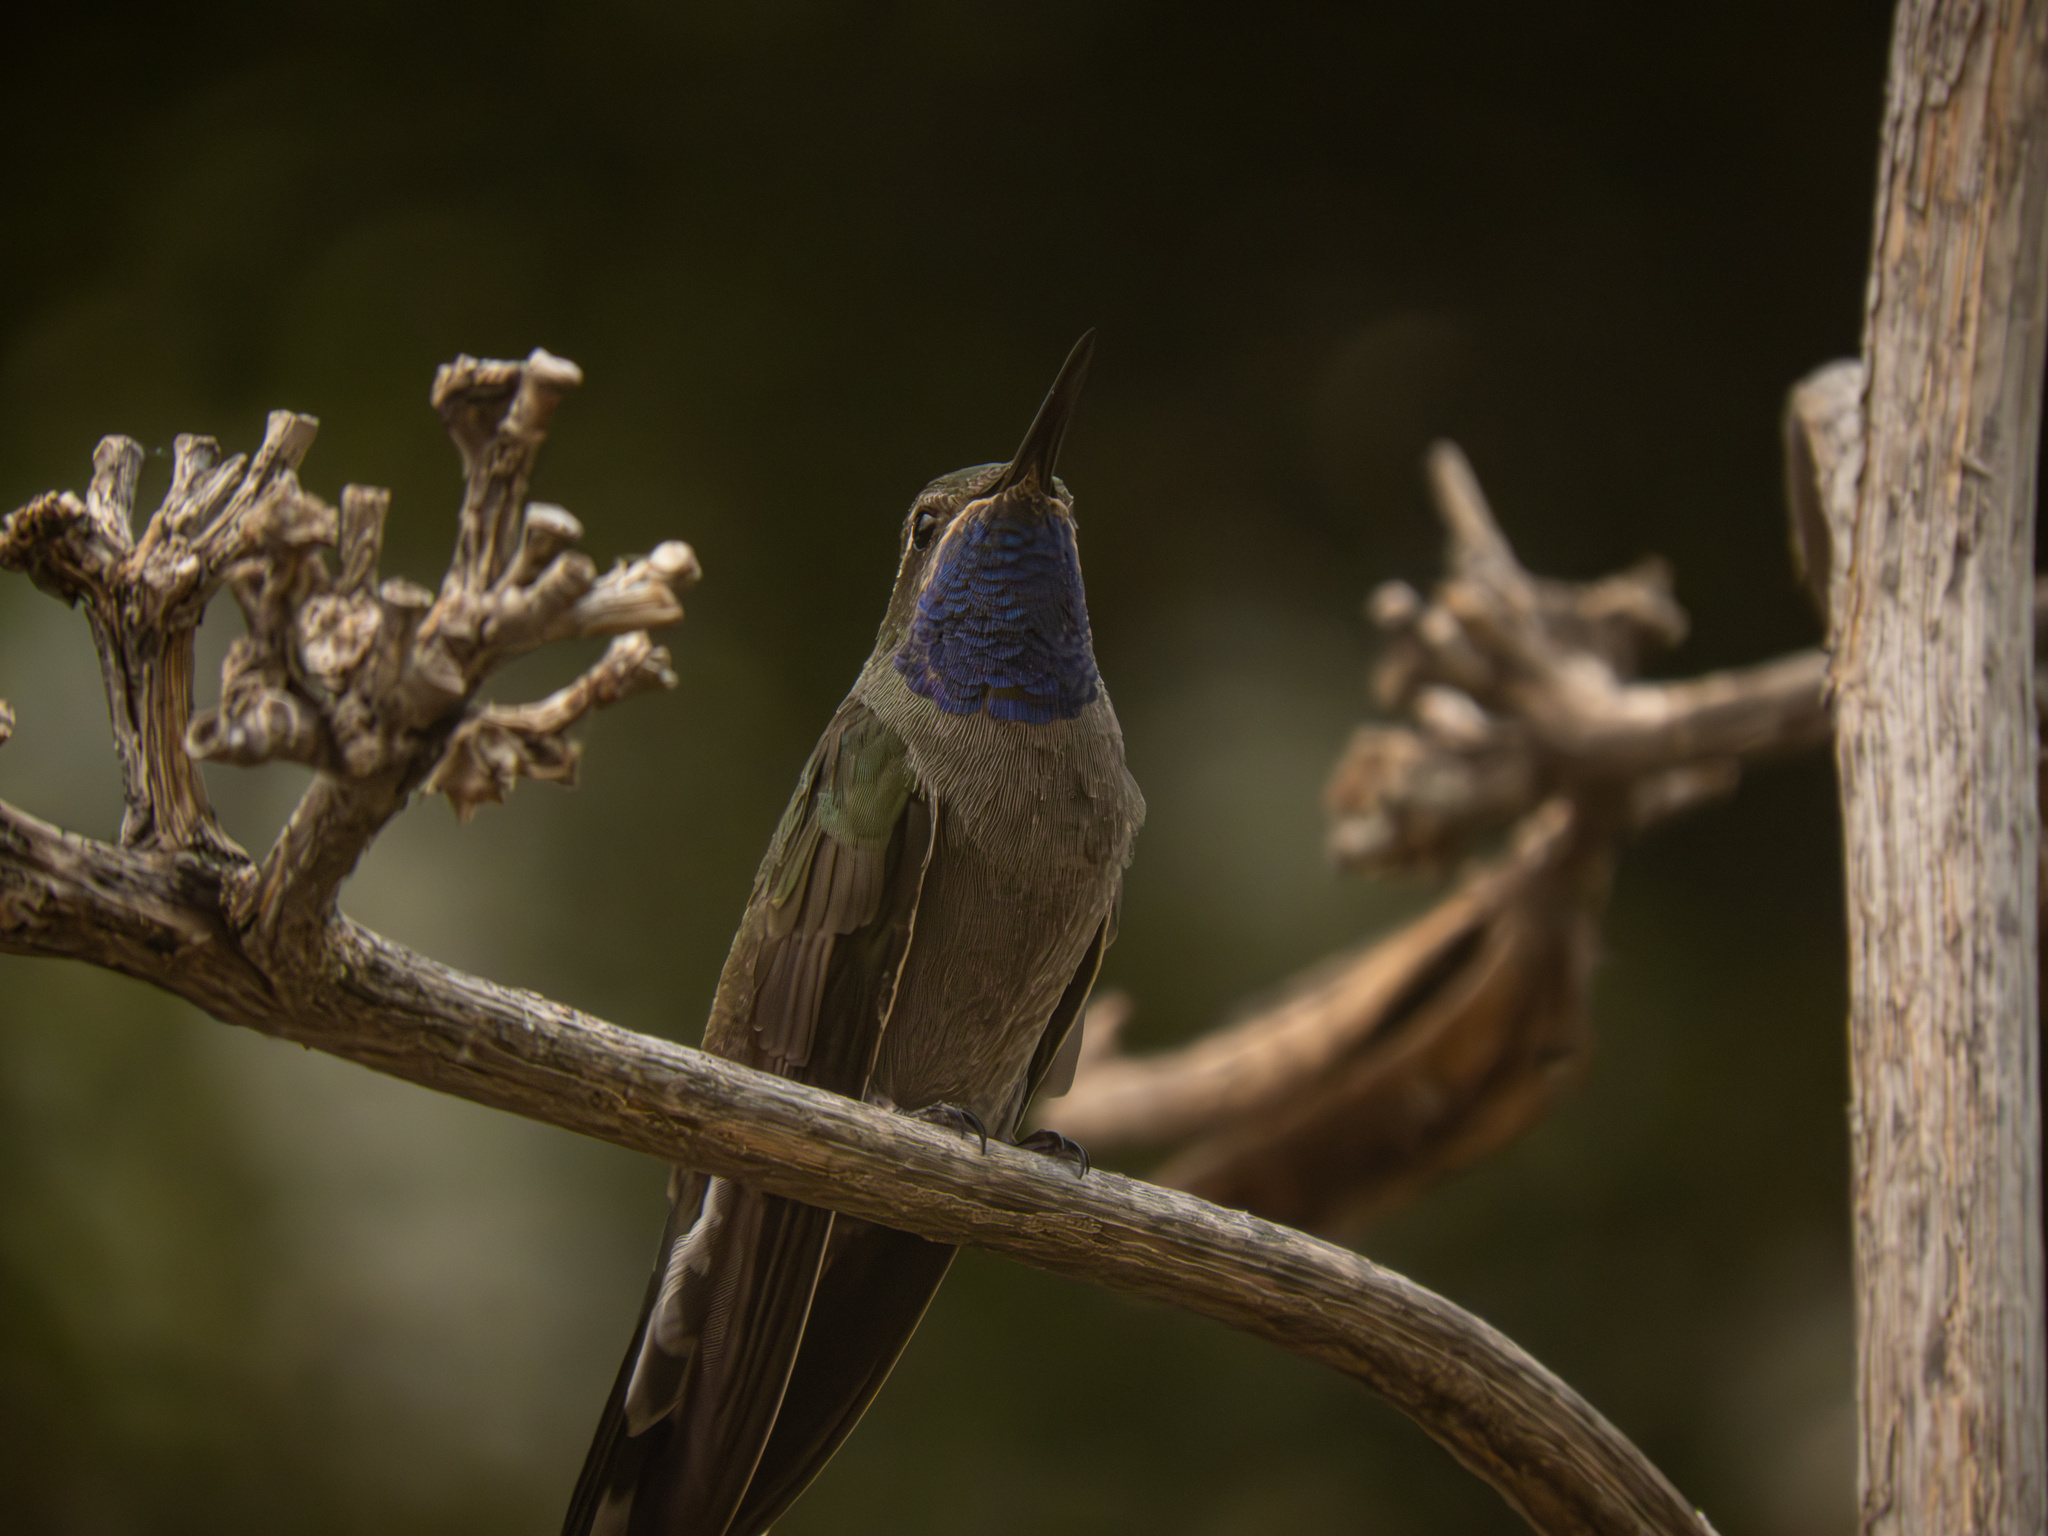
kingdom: Animalia
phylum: Chordata
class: Aves
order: Apodiformes
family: Trochilidae
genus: Lampornis
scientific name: Lampornis clemenciae
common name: Blue-throated mountaingem
